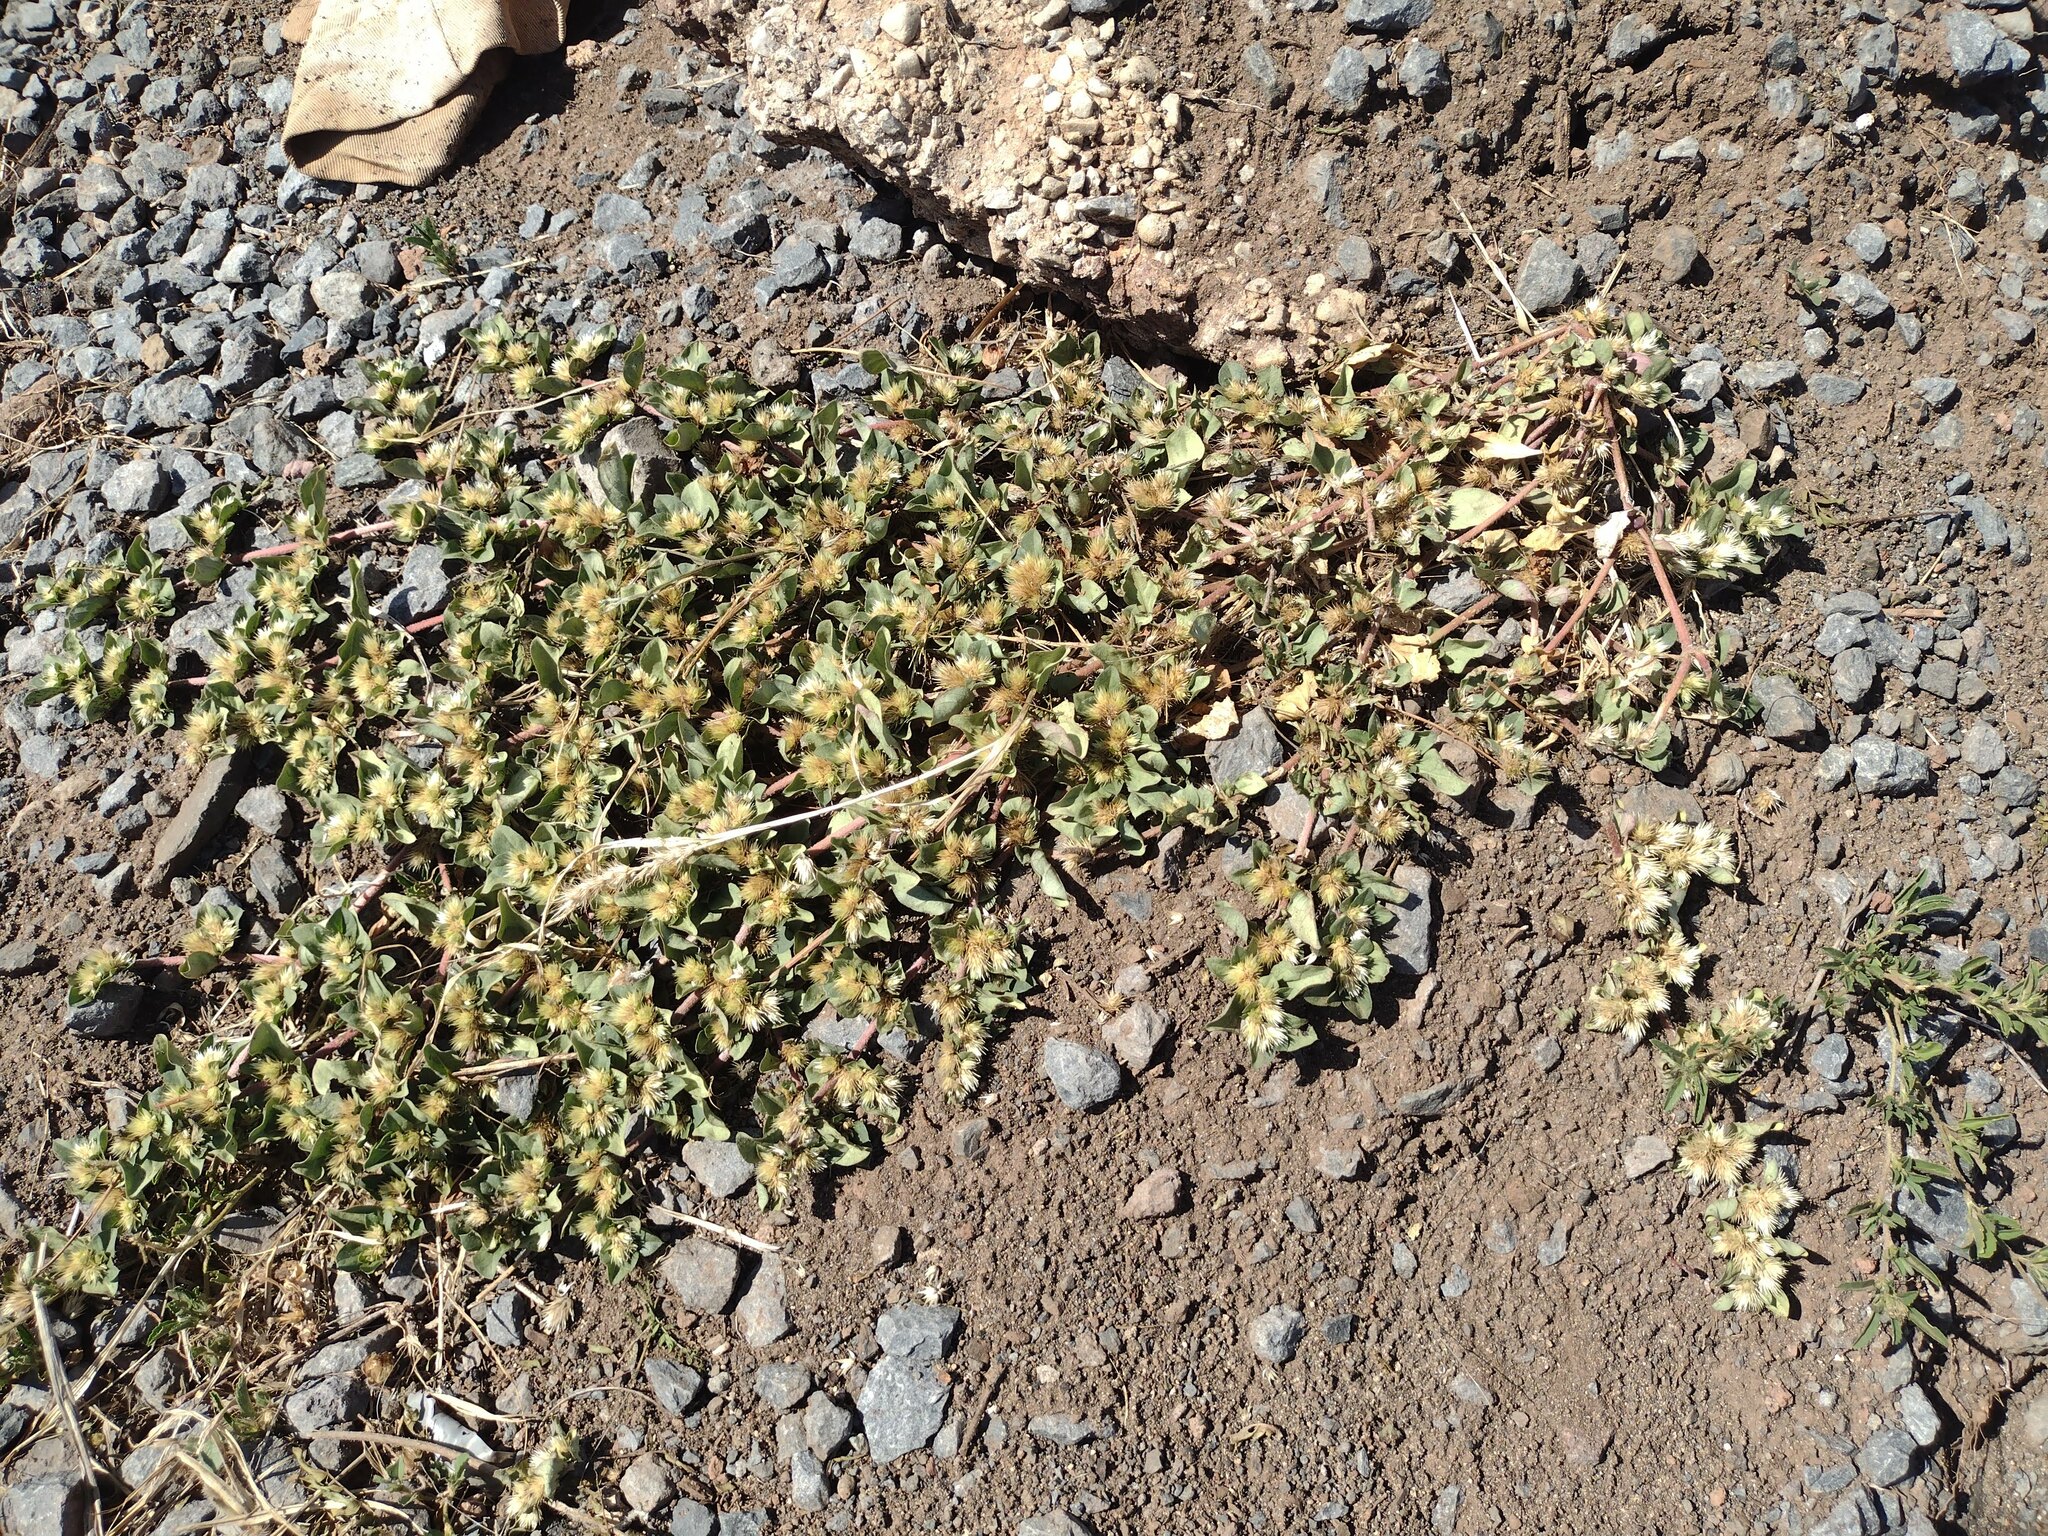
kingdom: Plantae
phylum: Tracheophyta
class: Magnoliopsida
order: Caryophyllales
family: Amaranthaceae
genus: Alternanthera
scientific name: Alternanthera pungens
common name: Khakiweed
